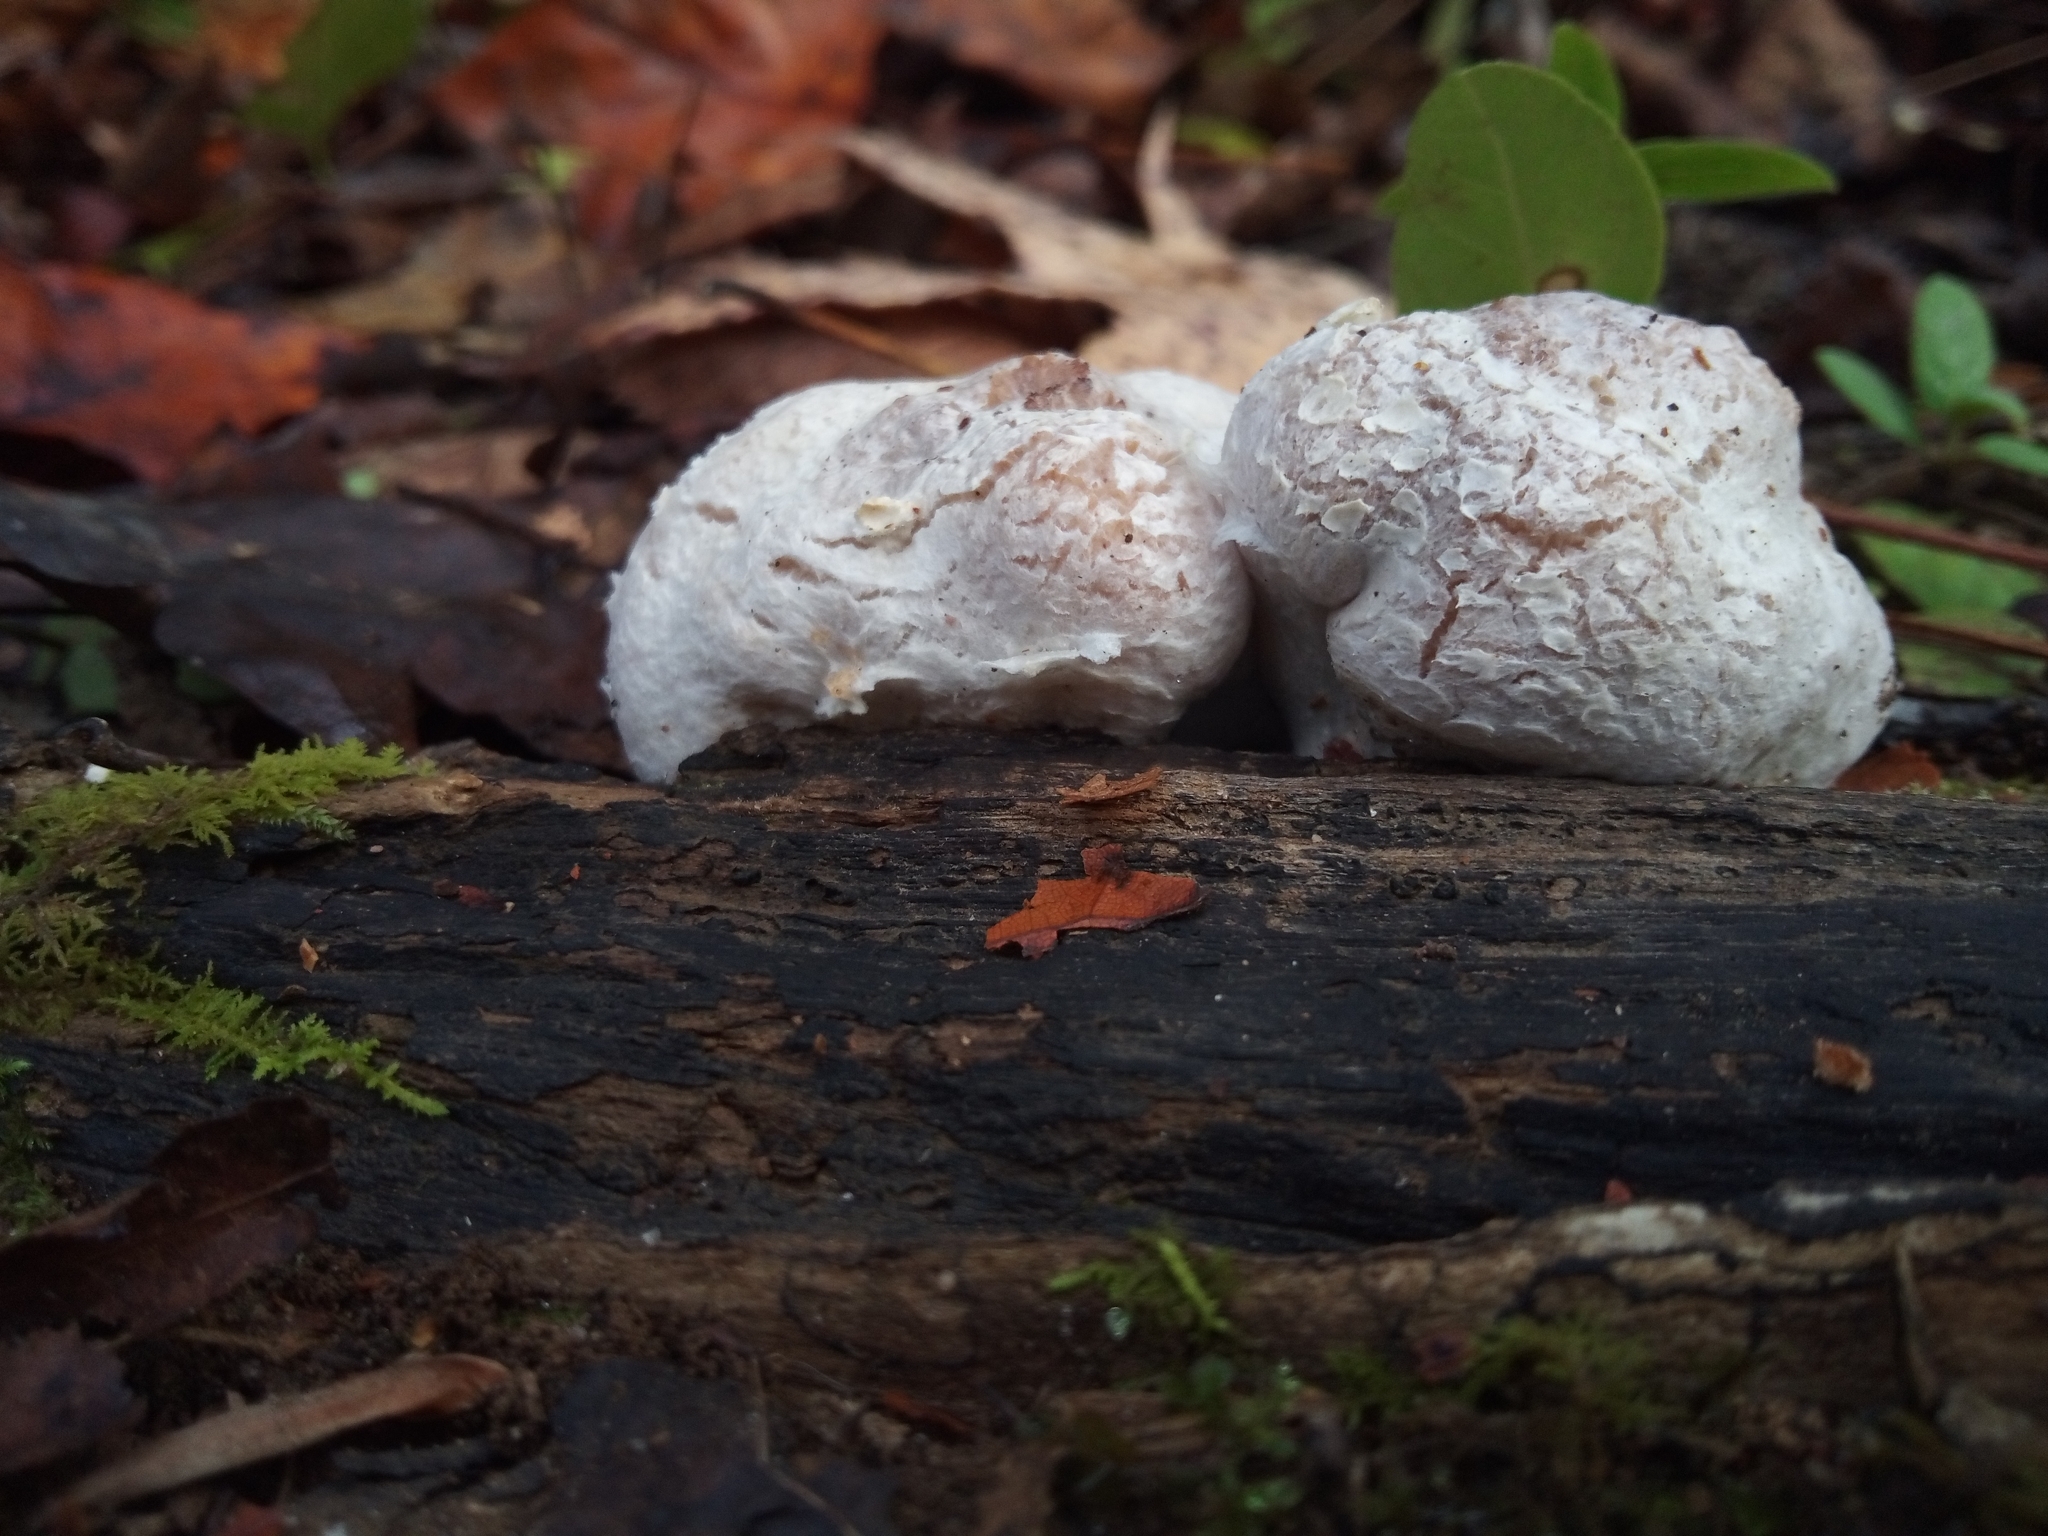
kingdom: Fungi
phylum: Basidiomycota
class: Agaricomycetes
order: Agaricales
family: Entolomataceae
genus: Entoloma
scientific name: Entoloma abortivum
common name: Aborted entoloma
